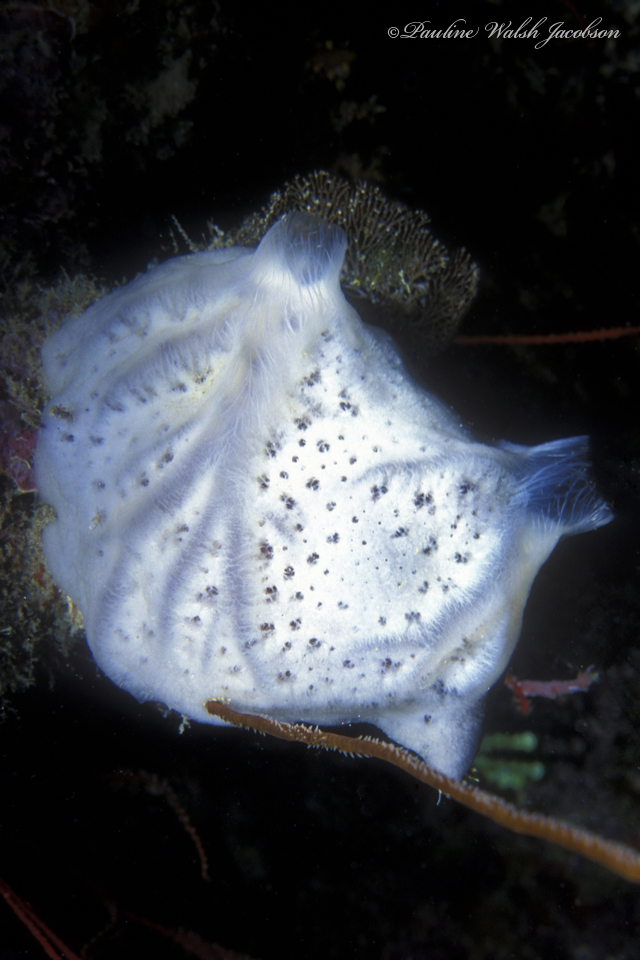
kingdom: Animalia
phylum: Porifera
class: Demospongiae
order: Poecilosclerida
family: Mycalidae
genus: Mycale
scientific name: Mycale laevis
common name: Orange icing sponge
